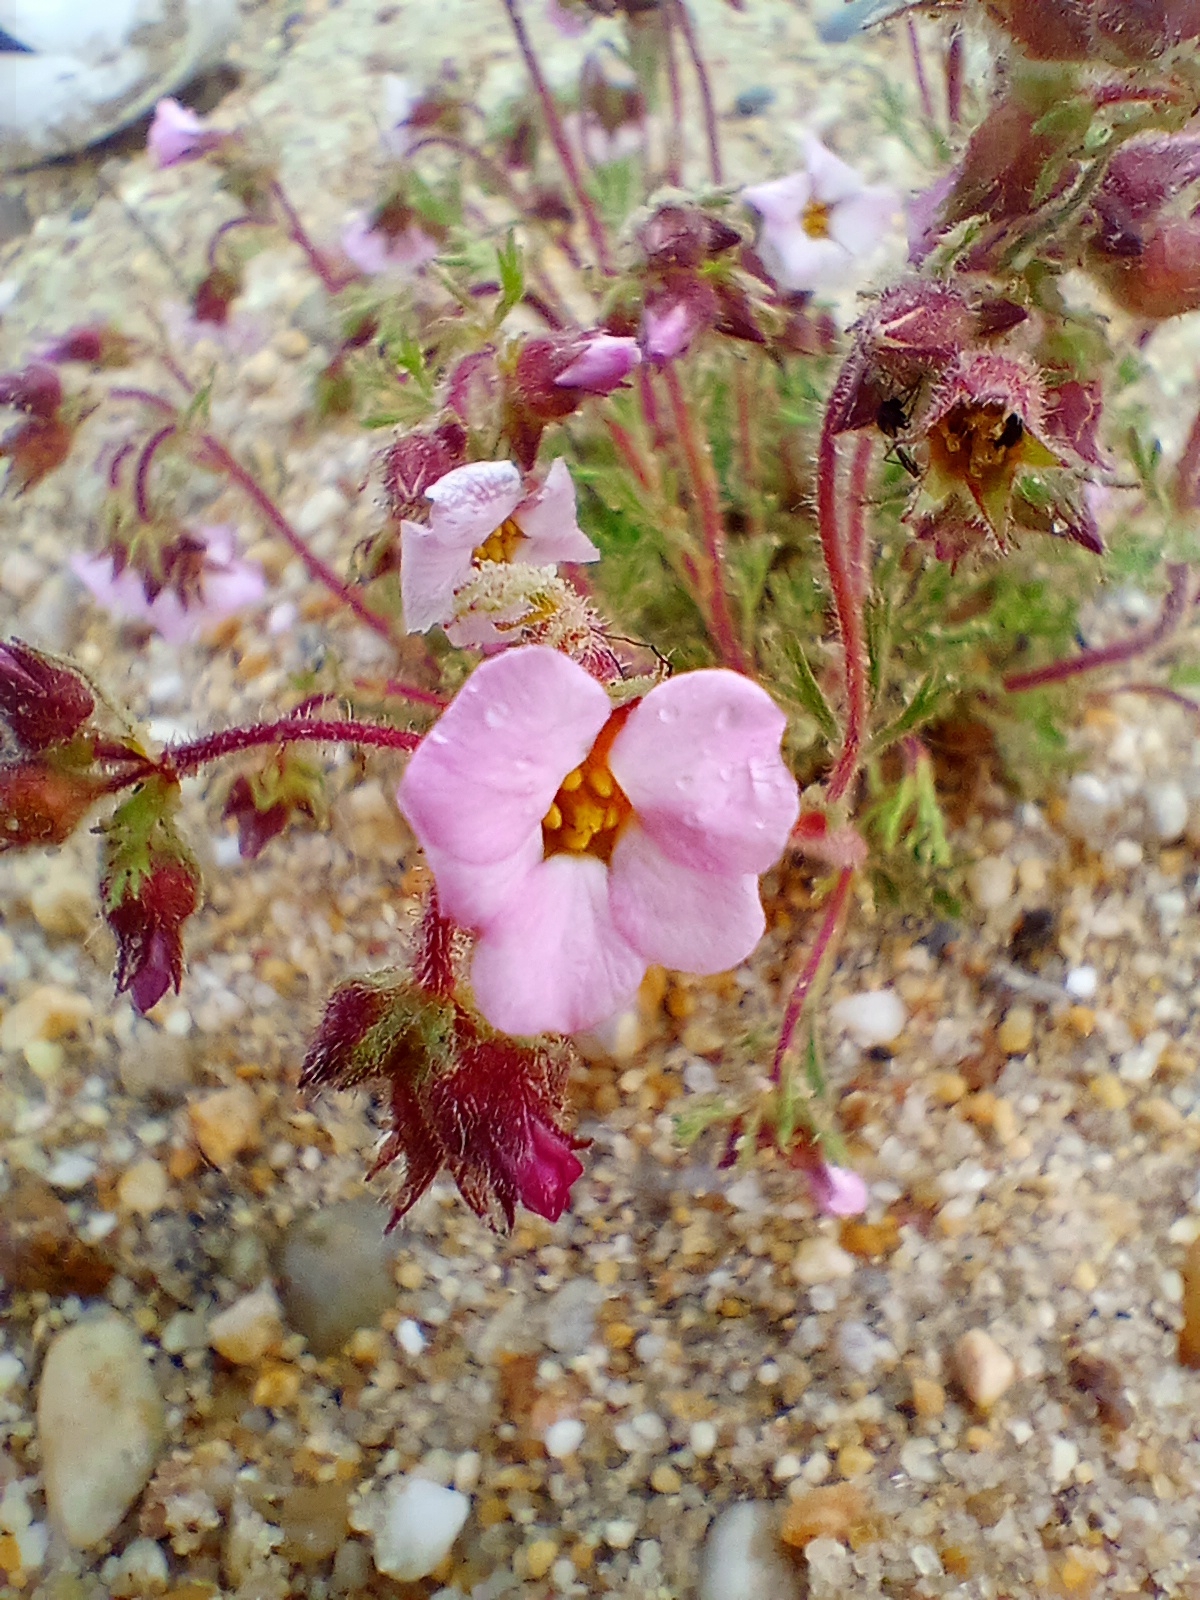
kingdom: Plantae
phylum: Tracheophyta
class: Magnoliopsida
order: Rosales
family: Rosaceae
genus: Chamaerhodos
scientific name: Chamaerhodos grandiflora
